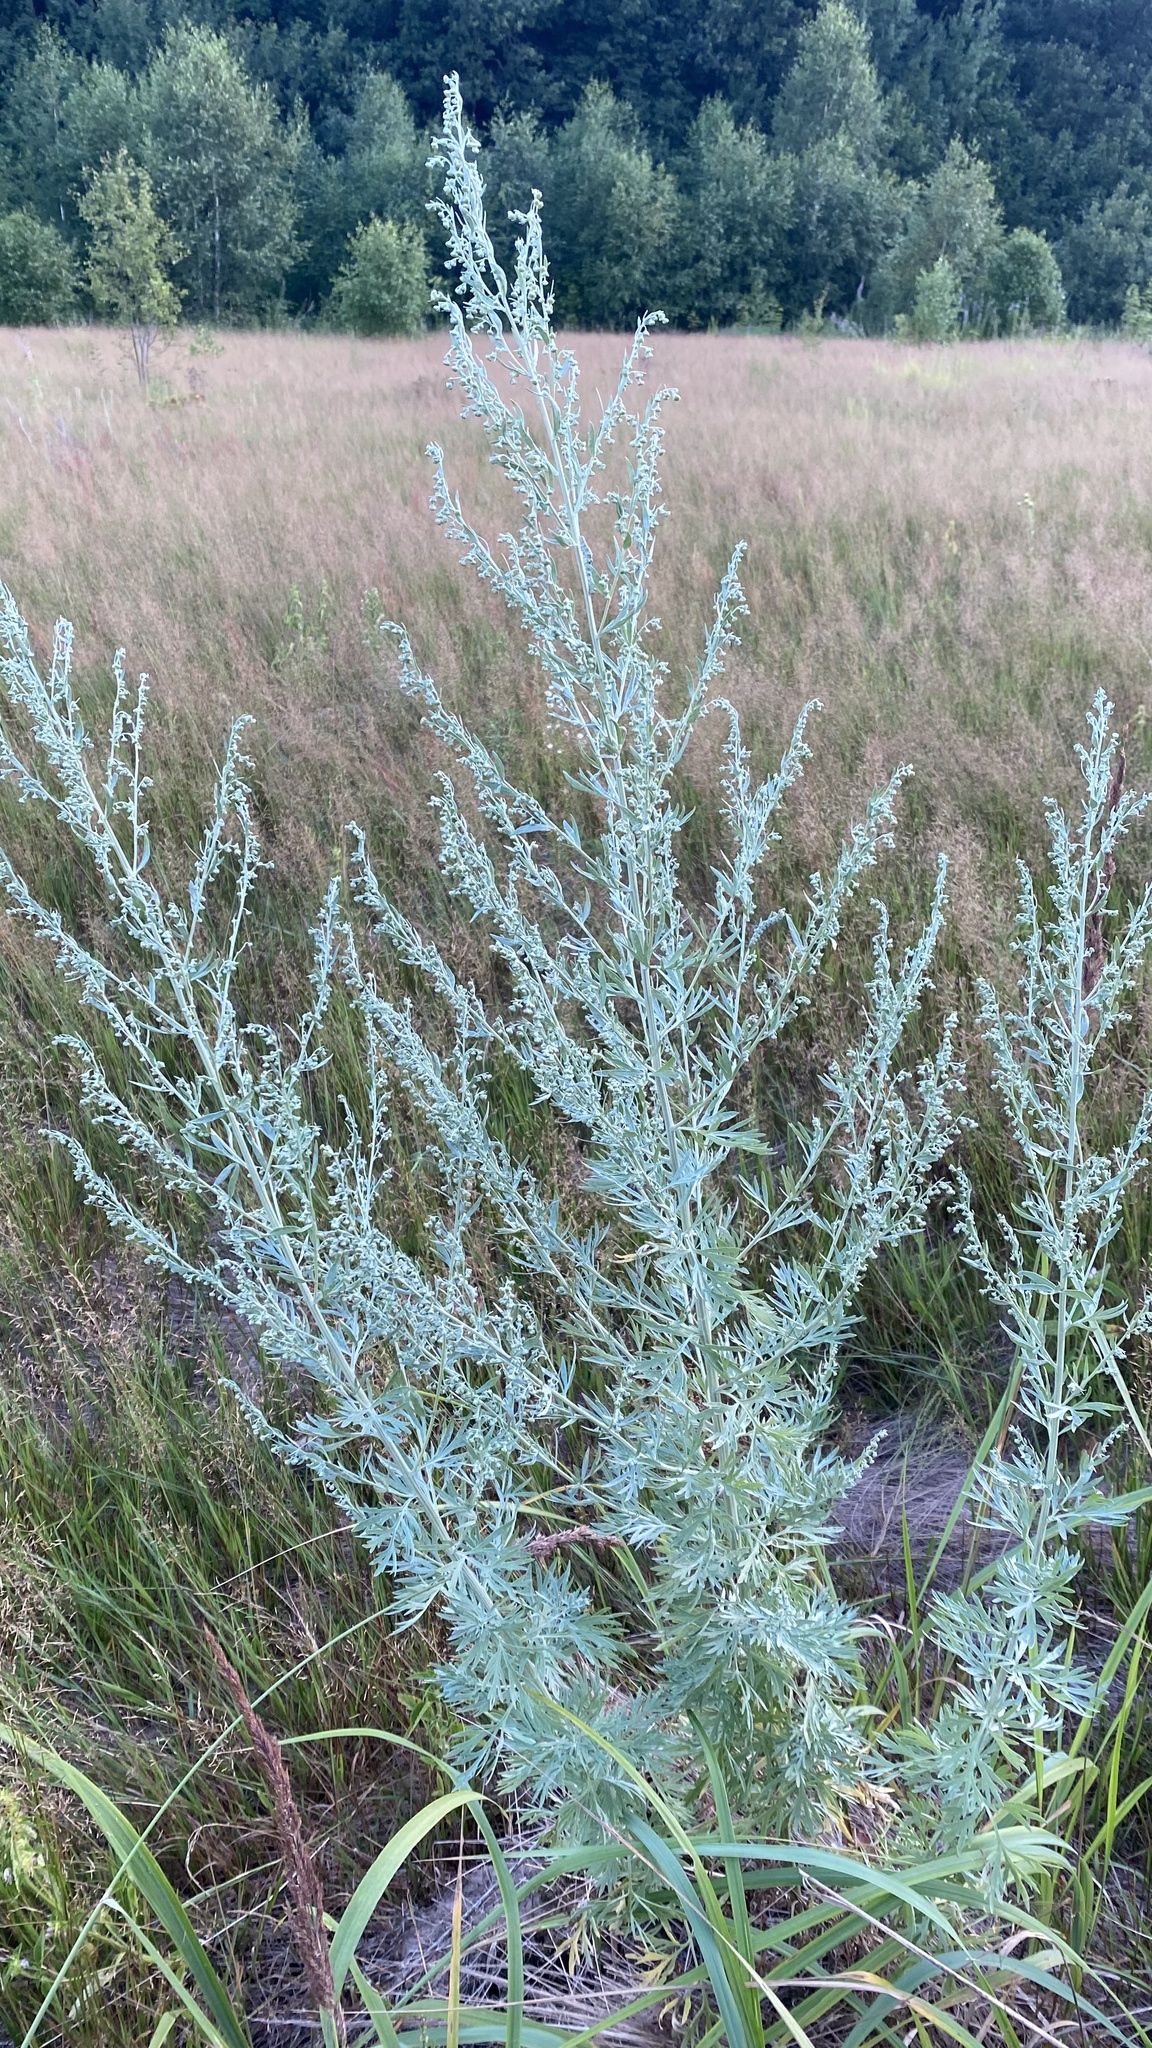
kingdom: Plantae
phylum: Tracheophyta
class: Magnoliopsida
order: Asterales
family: Asteraceae
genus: Artemisia
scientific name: Artemisia absinthium
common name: Wormwood
